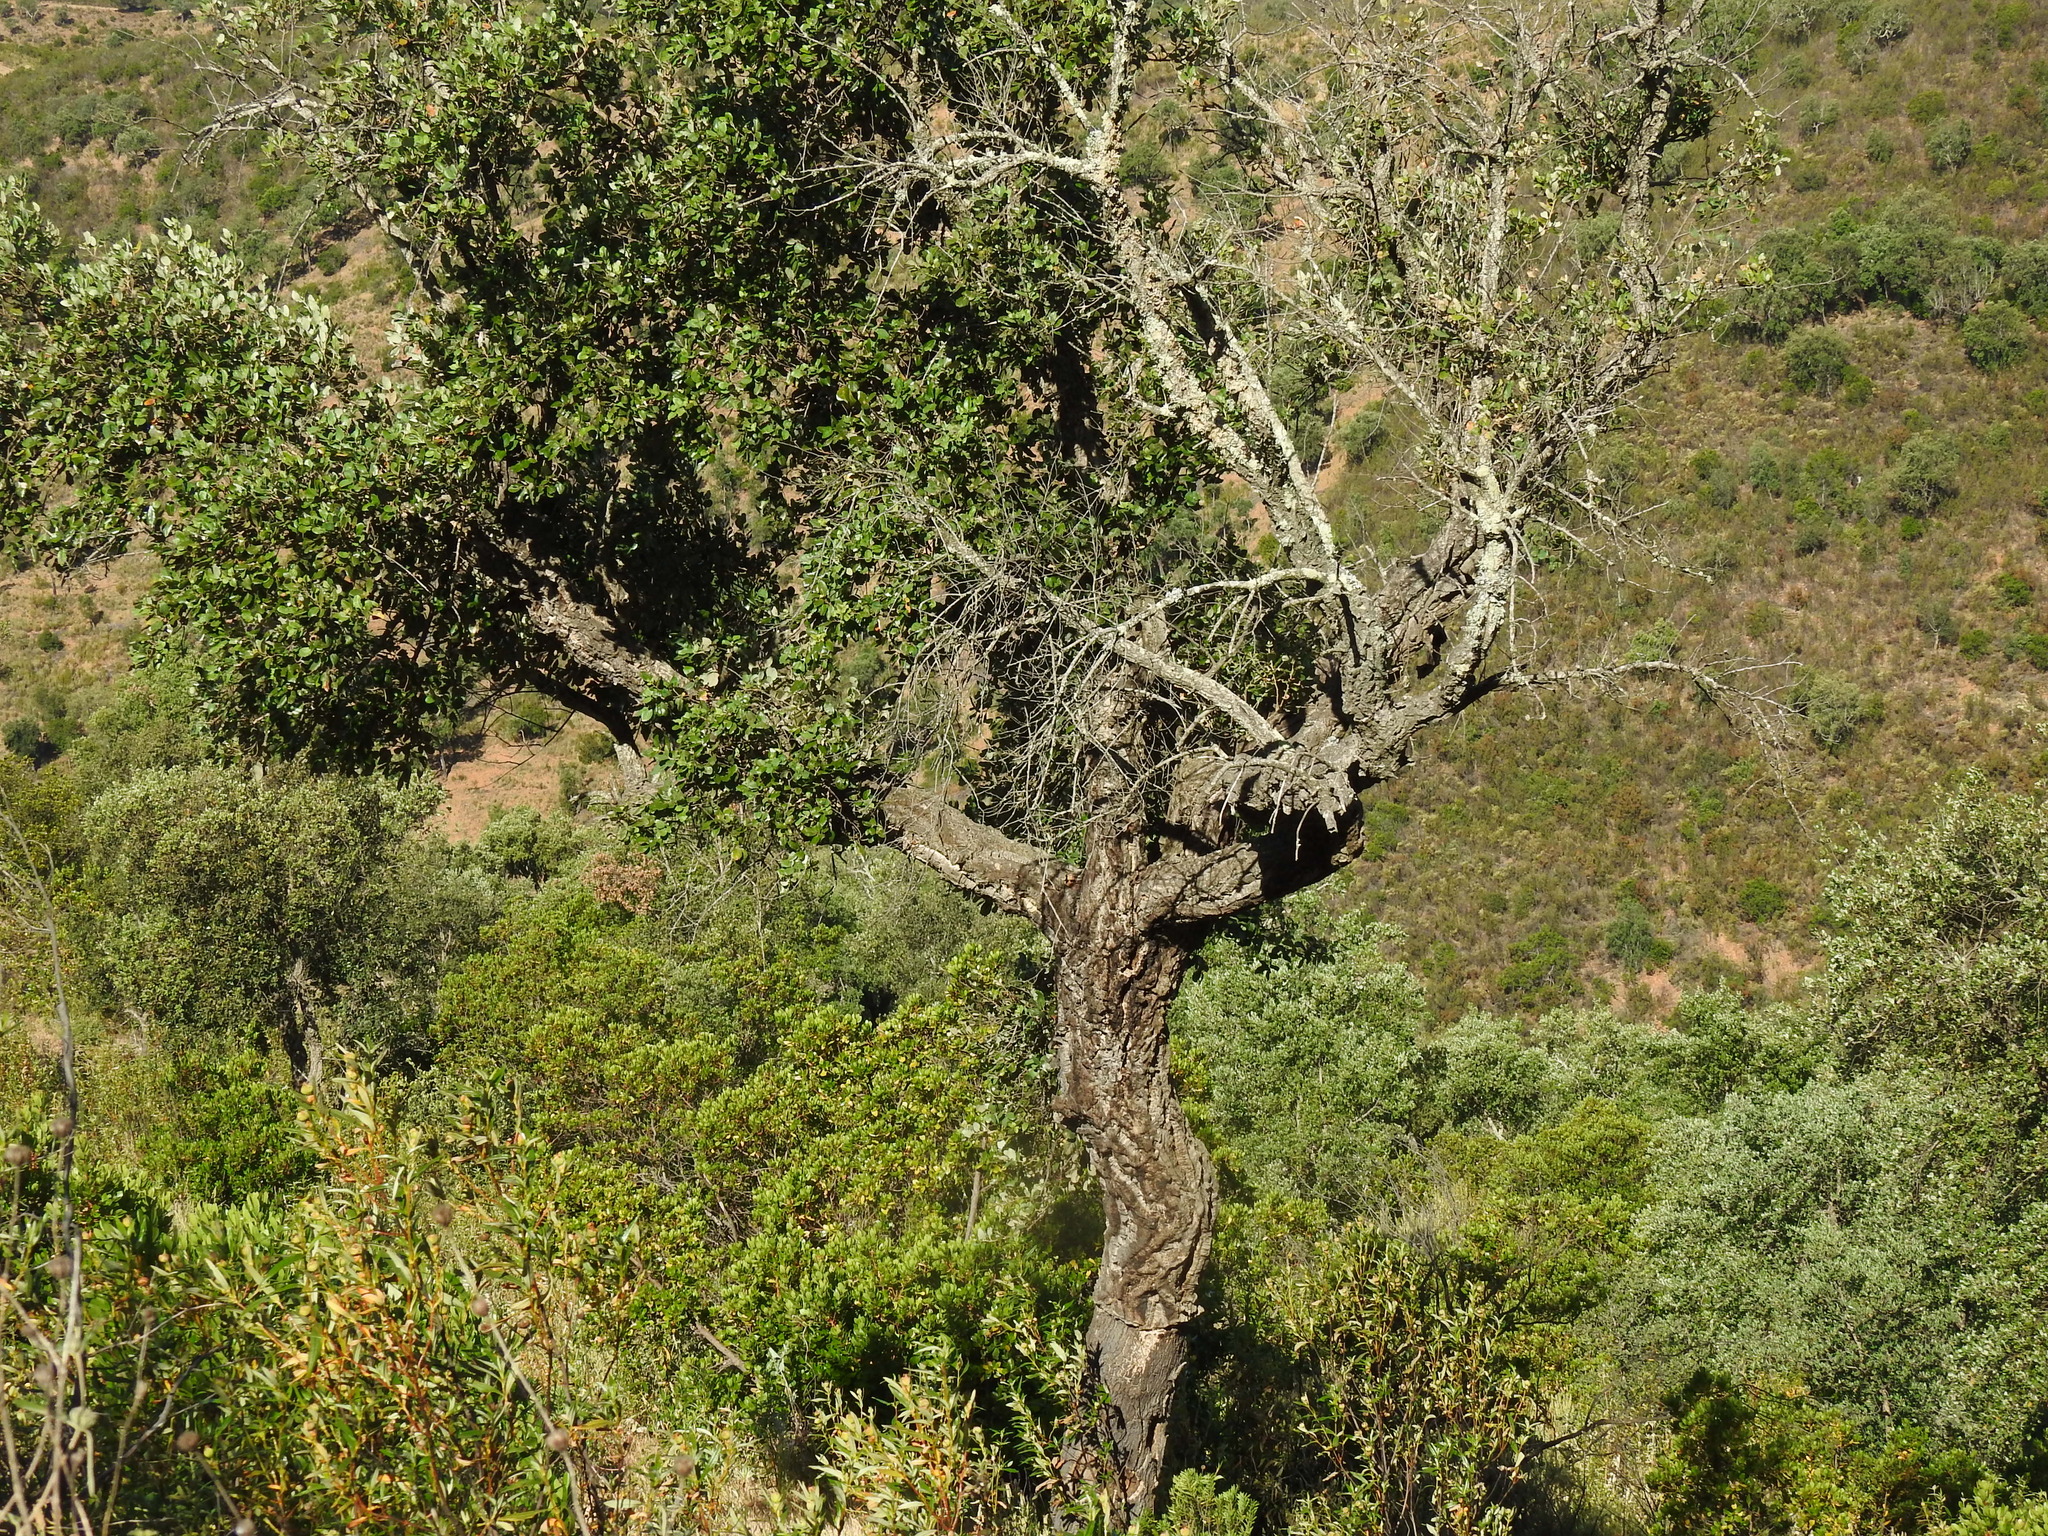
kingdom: Plantae
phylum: Tracheophyta
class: Magnoliopsida
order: Fagales
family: Fagaceae
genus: Quercus
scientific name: Quercus suber
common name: Cork oak
